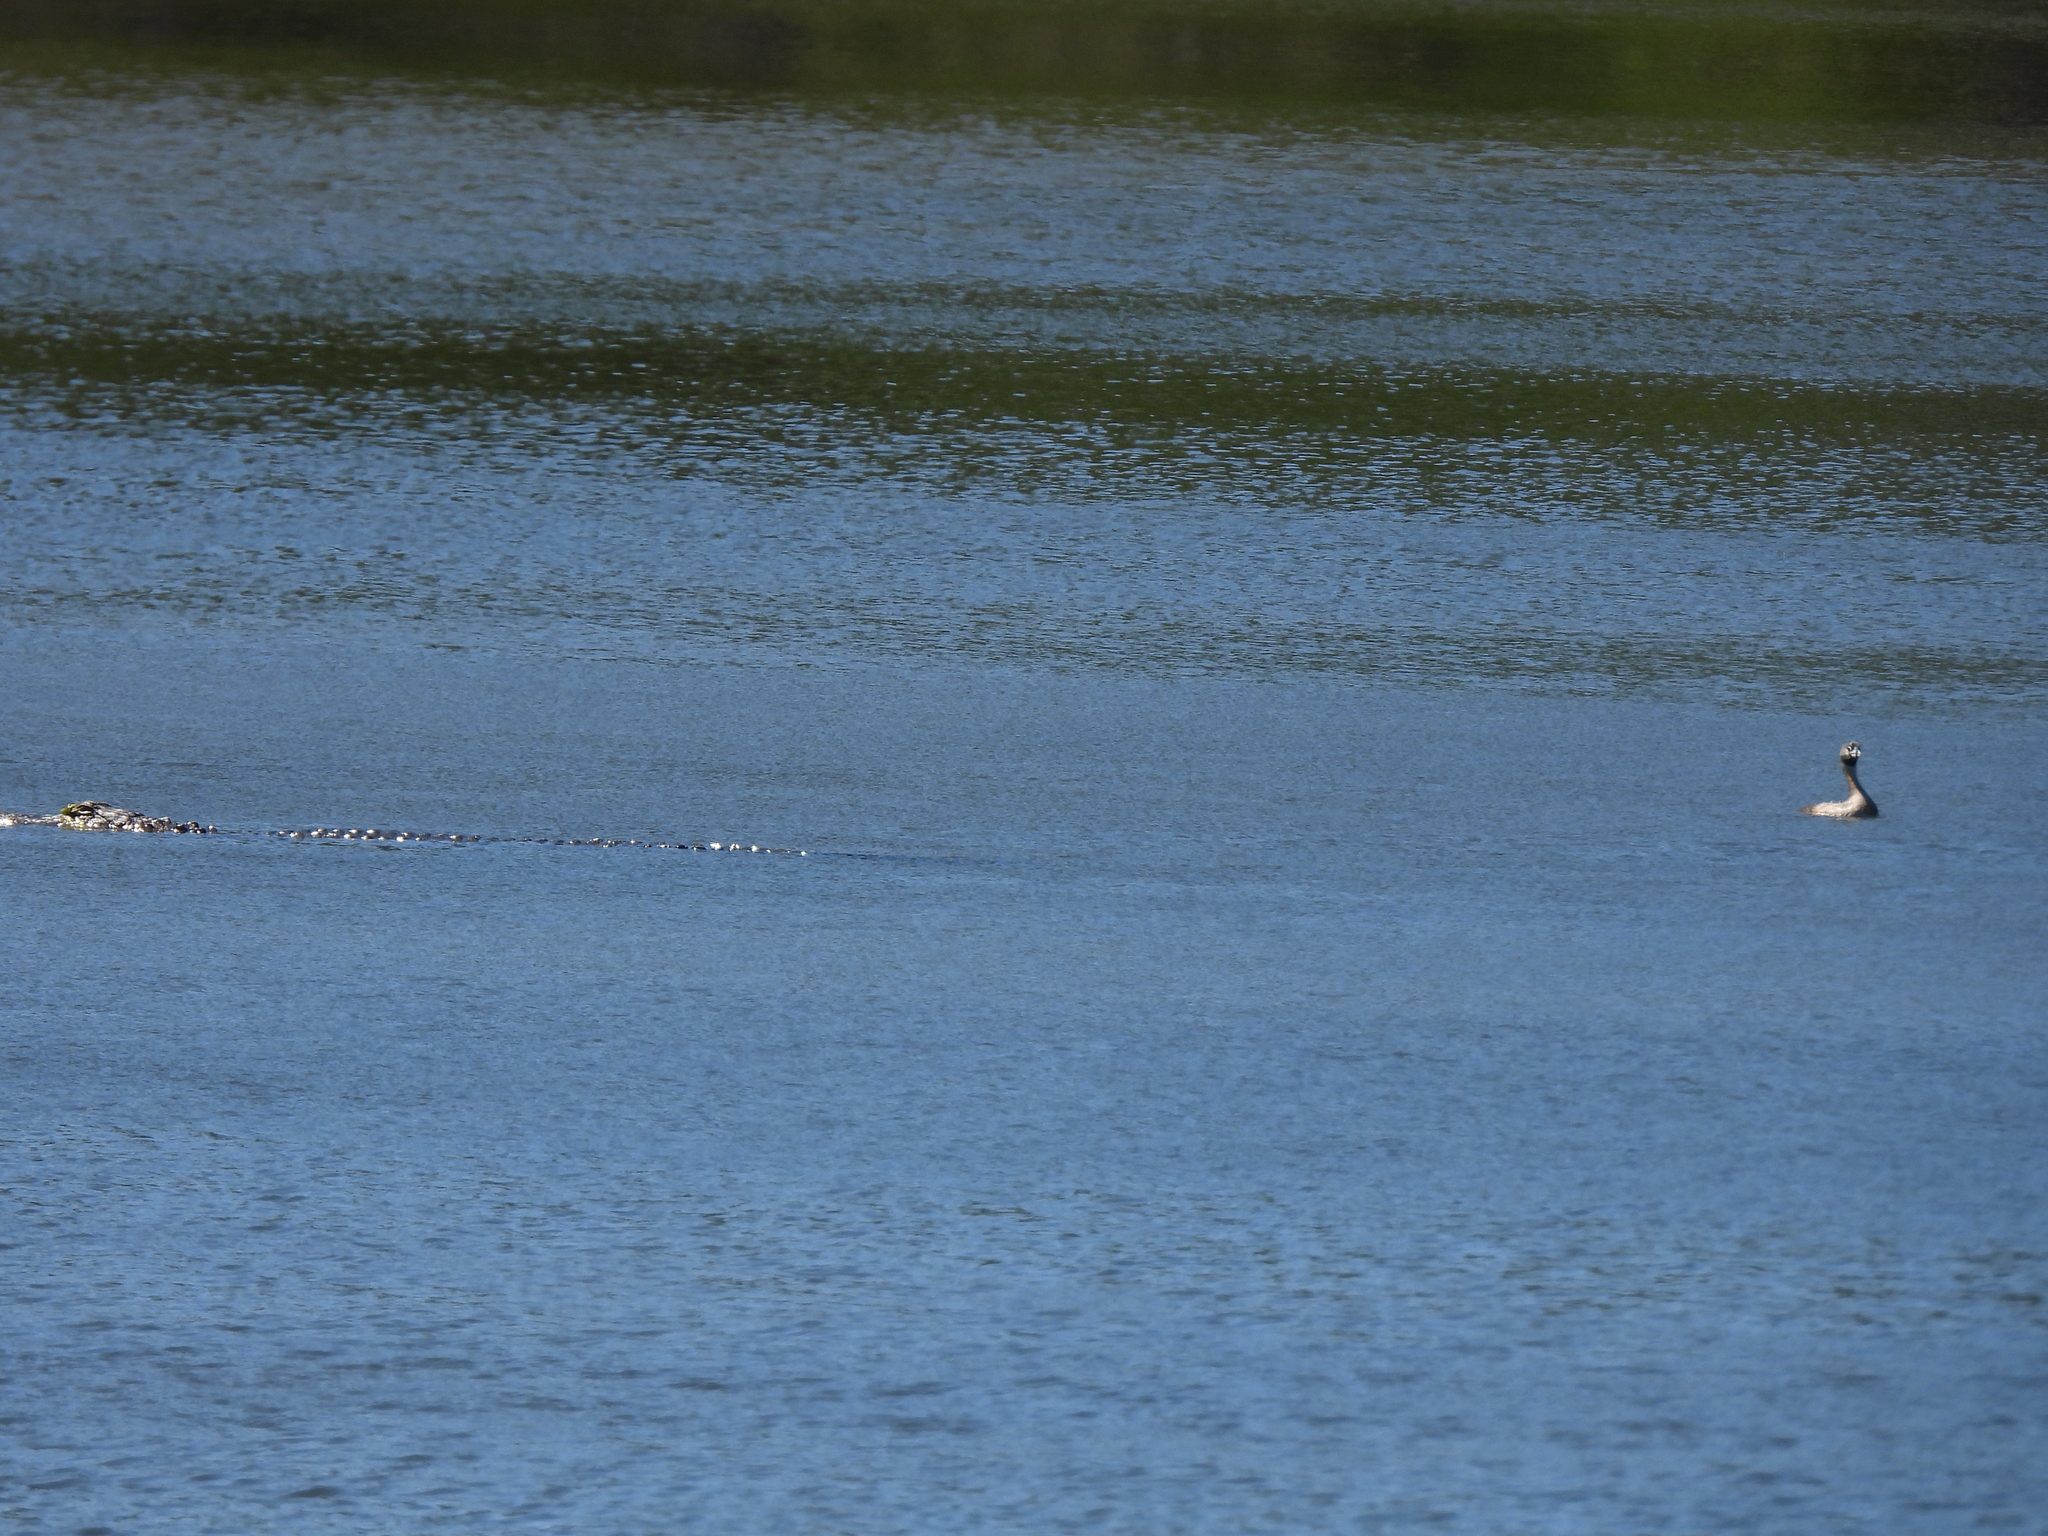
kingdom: Animalia
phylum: Chordata
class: Aves
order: Podicipediformes
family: Podicipedidae
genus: Podilymbus
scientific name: Podilymbus podiceps
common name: Pied-billed grebe
